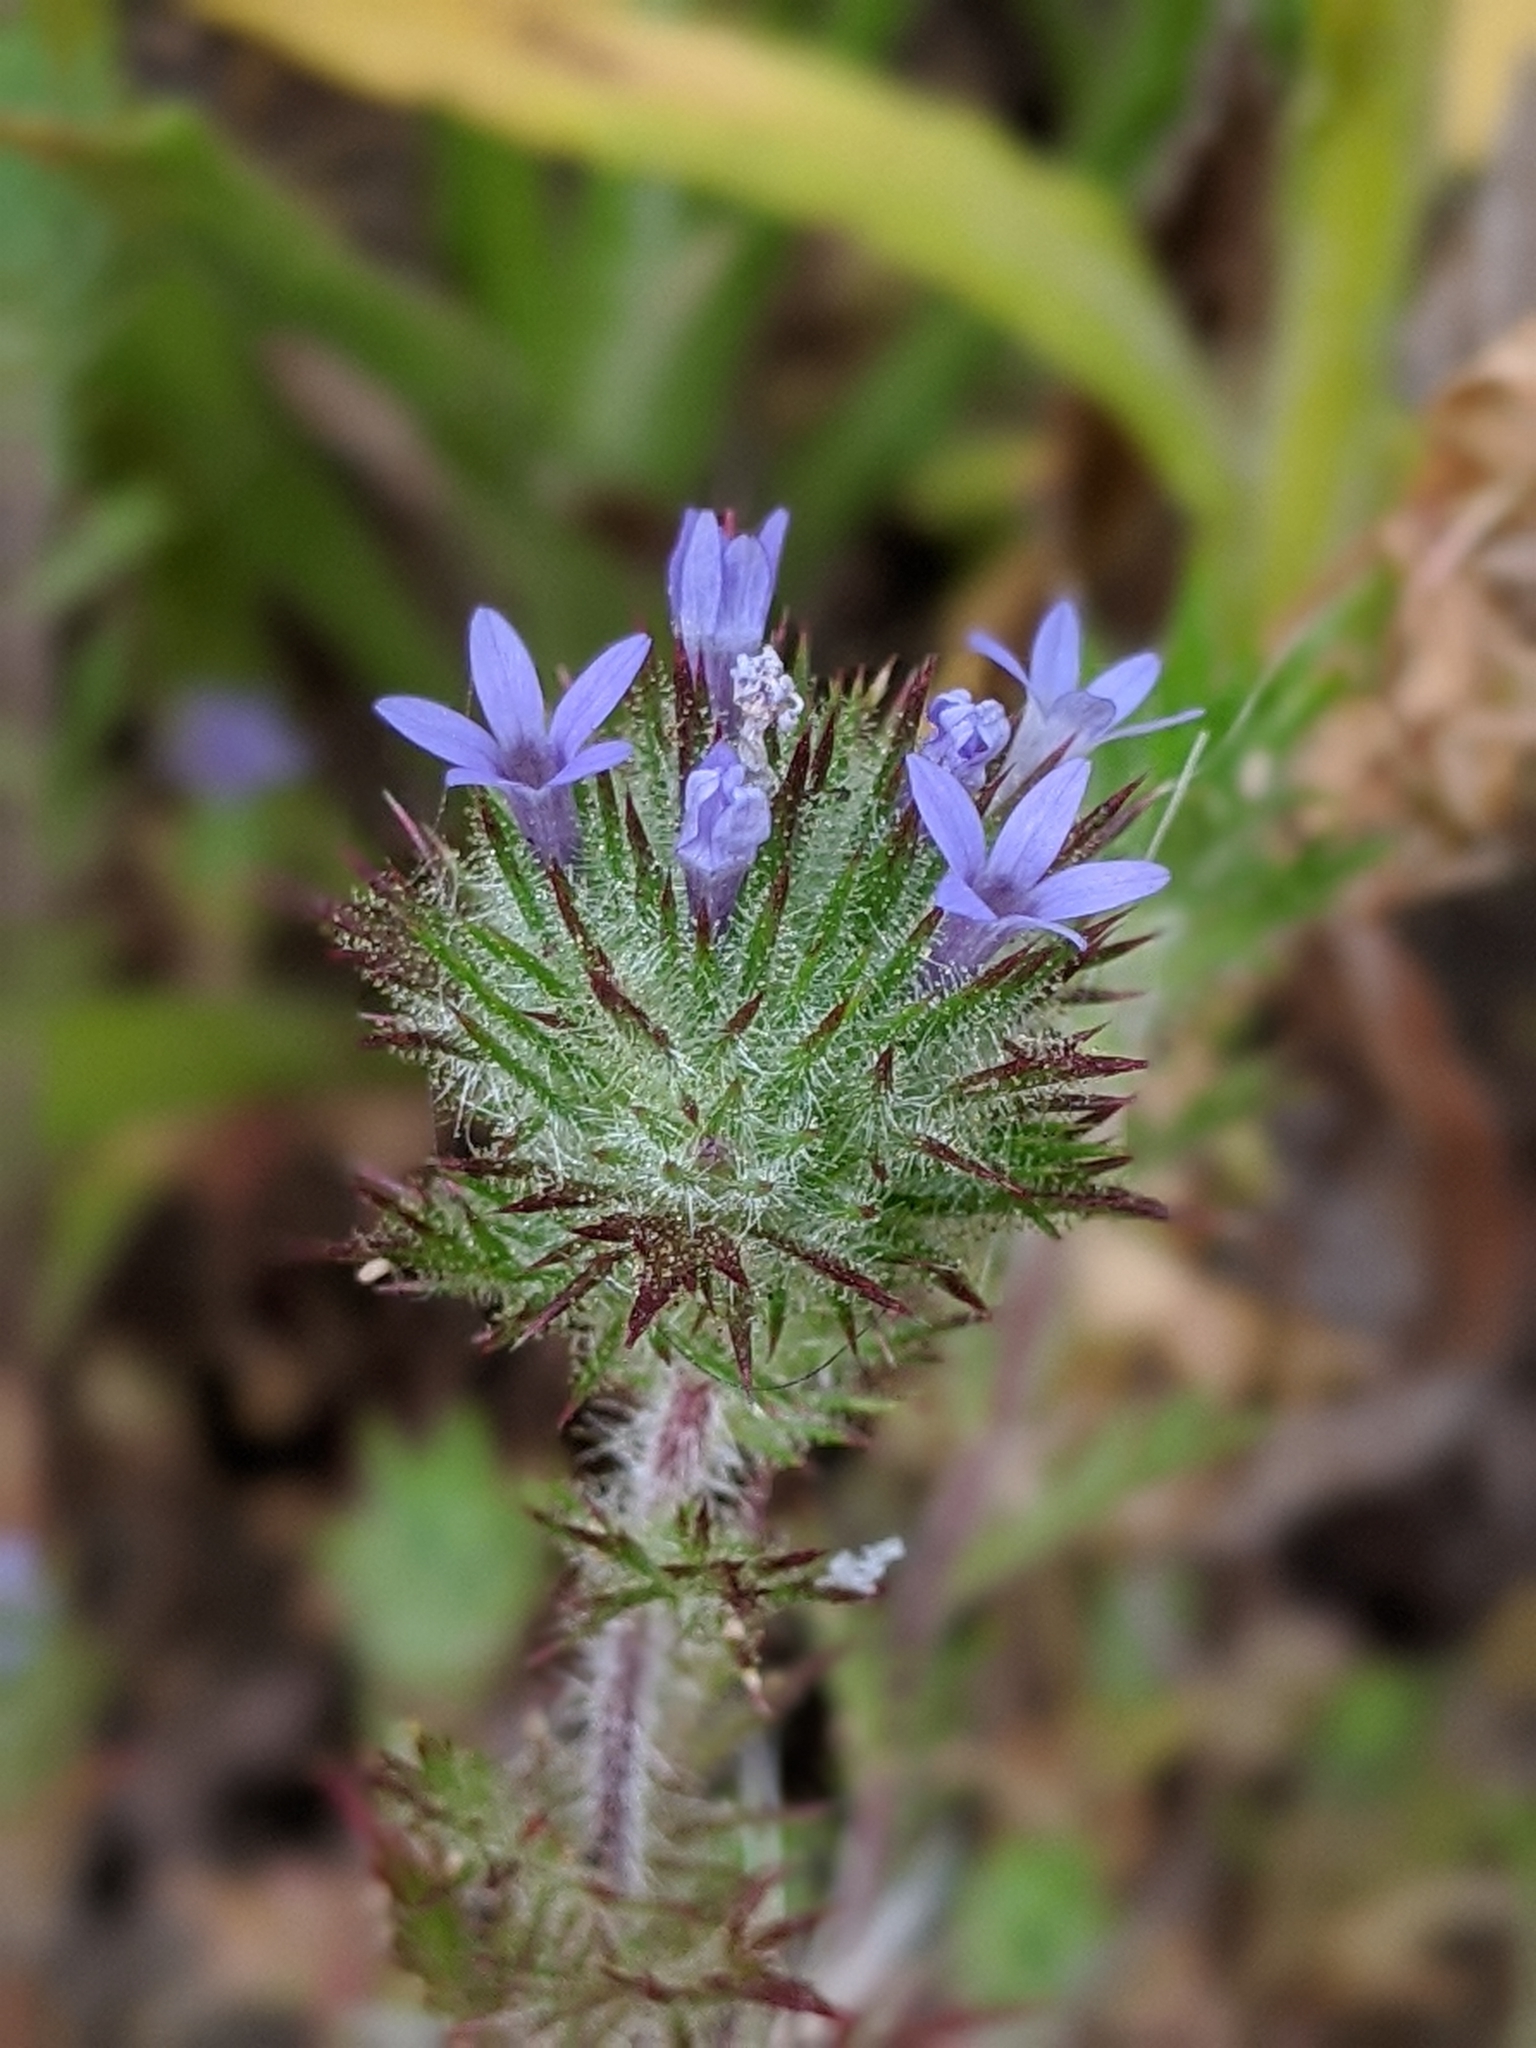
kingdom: Plantae
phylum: Tracheophyta
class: Magnoliopsida
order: Ericales
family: Polemoniaceae
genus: Navarretia
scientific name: Navarretia squarrosa
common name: Skunkweed
